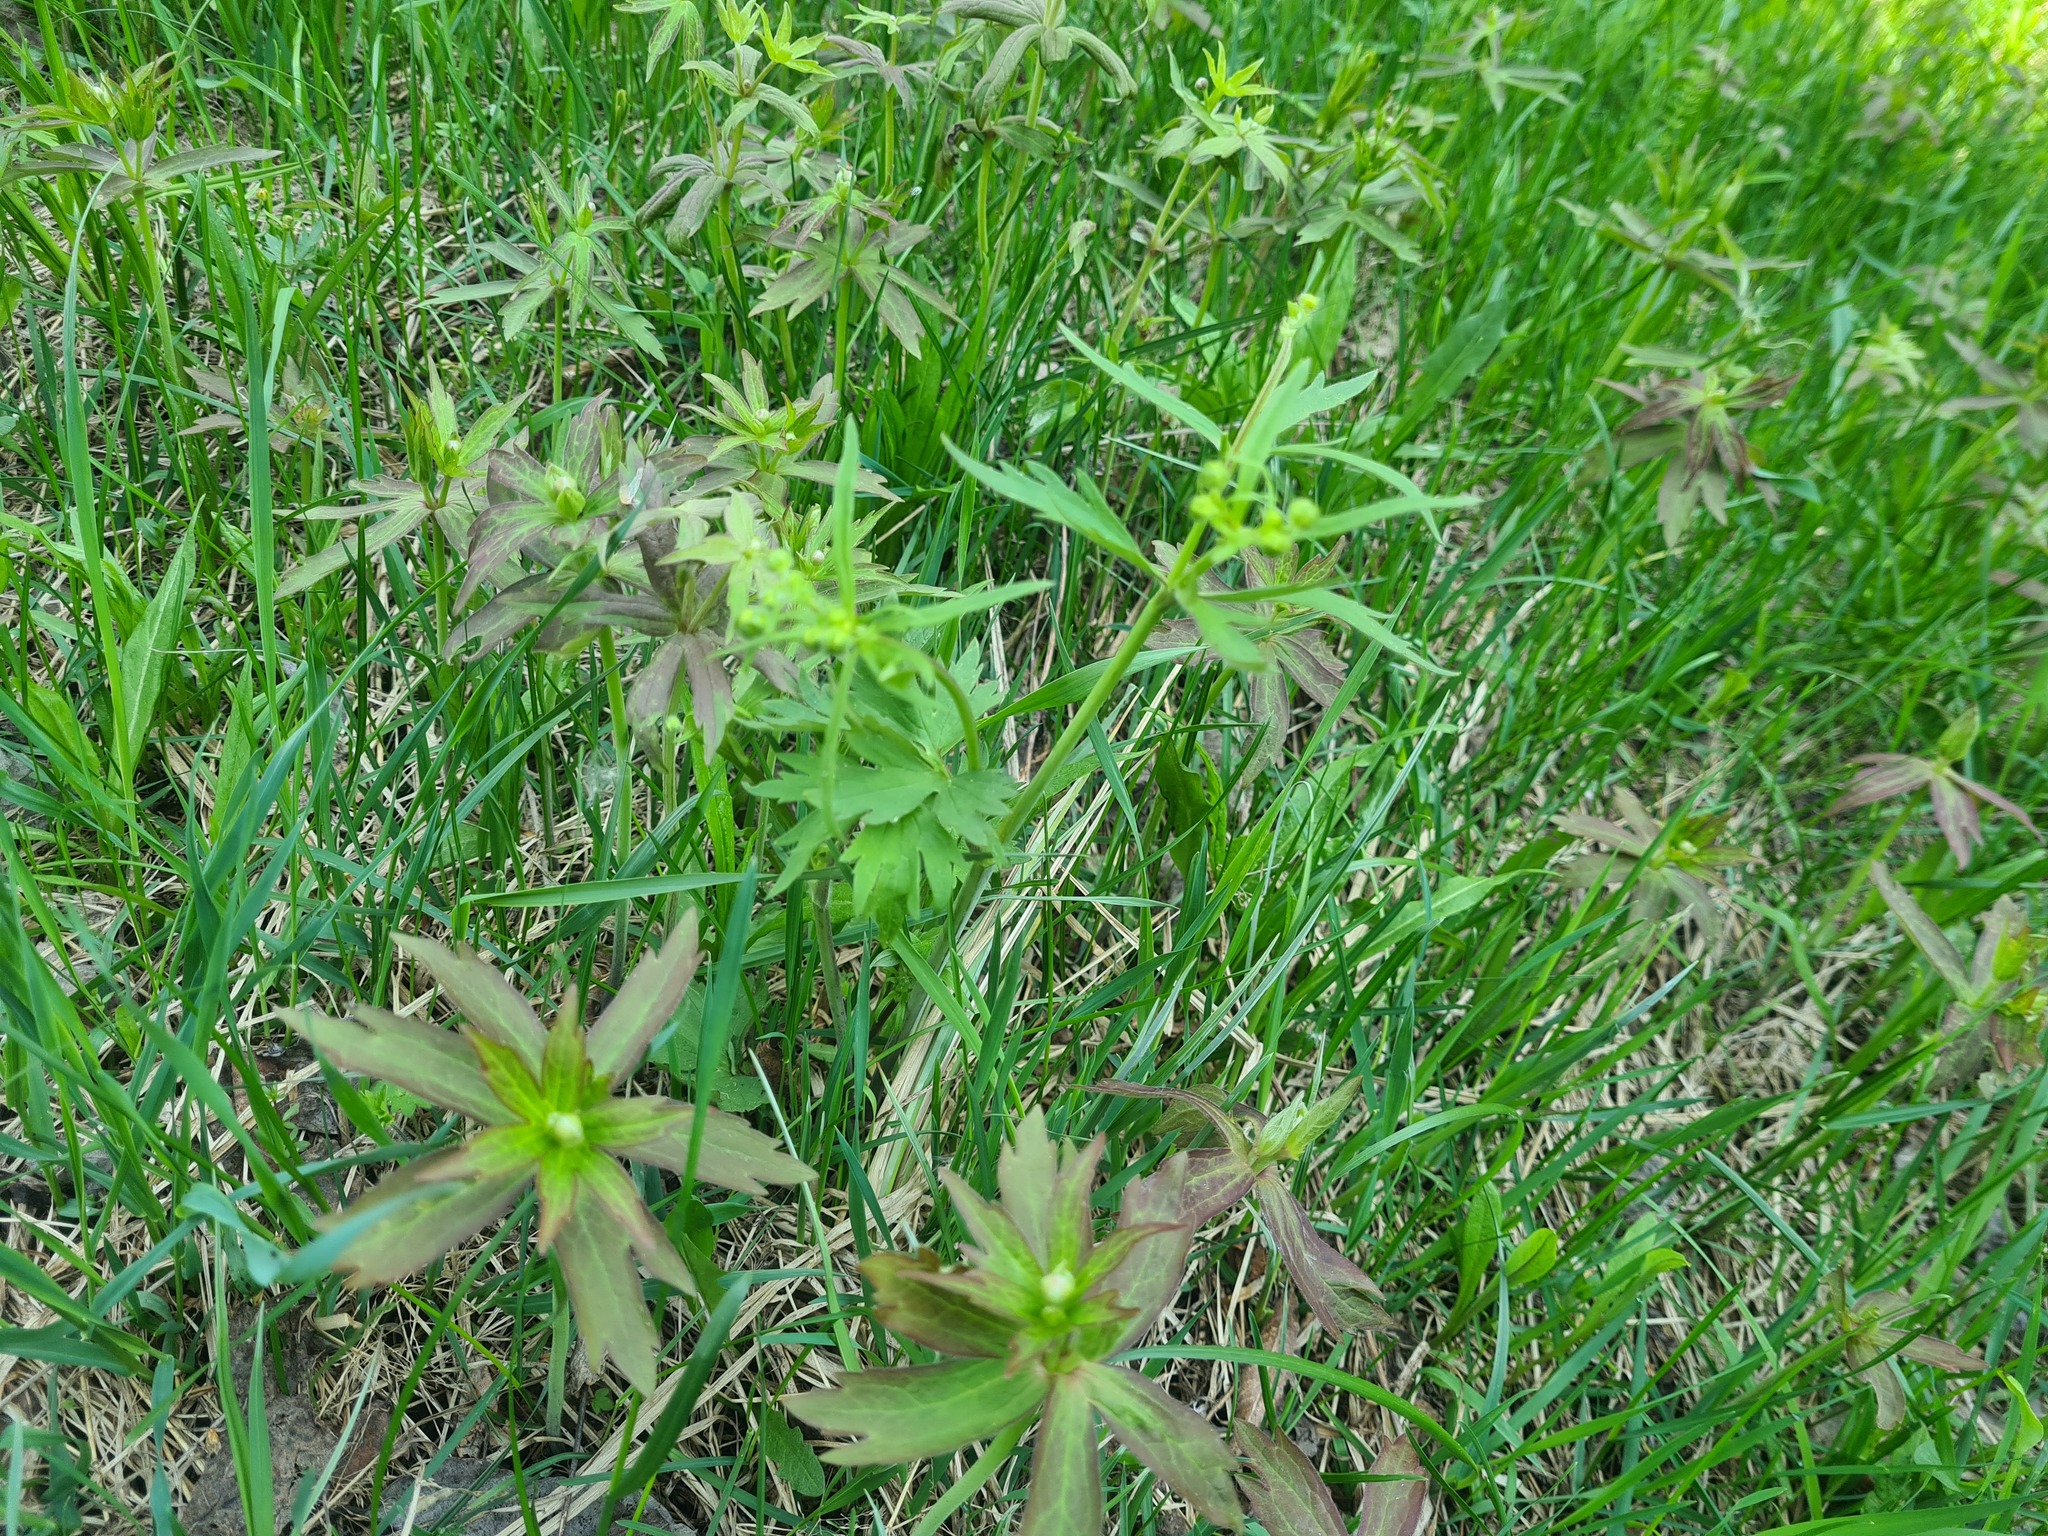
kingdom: Plantae
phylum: Tracheophyta
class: Magnoliopsida
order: Ranunculales
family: Ranunculaceae
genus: Anemonastrum
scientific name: Anemonastrum dichotomum
